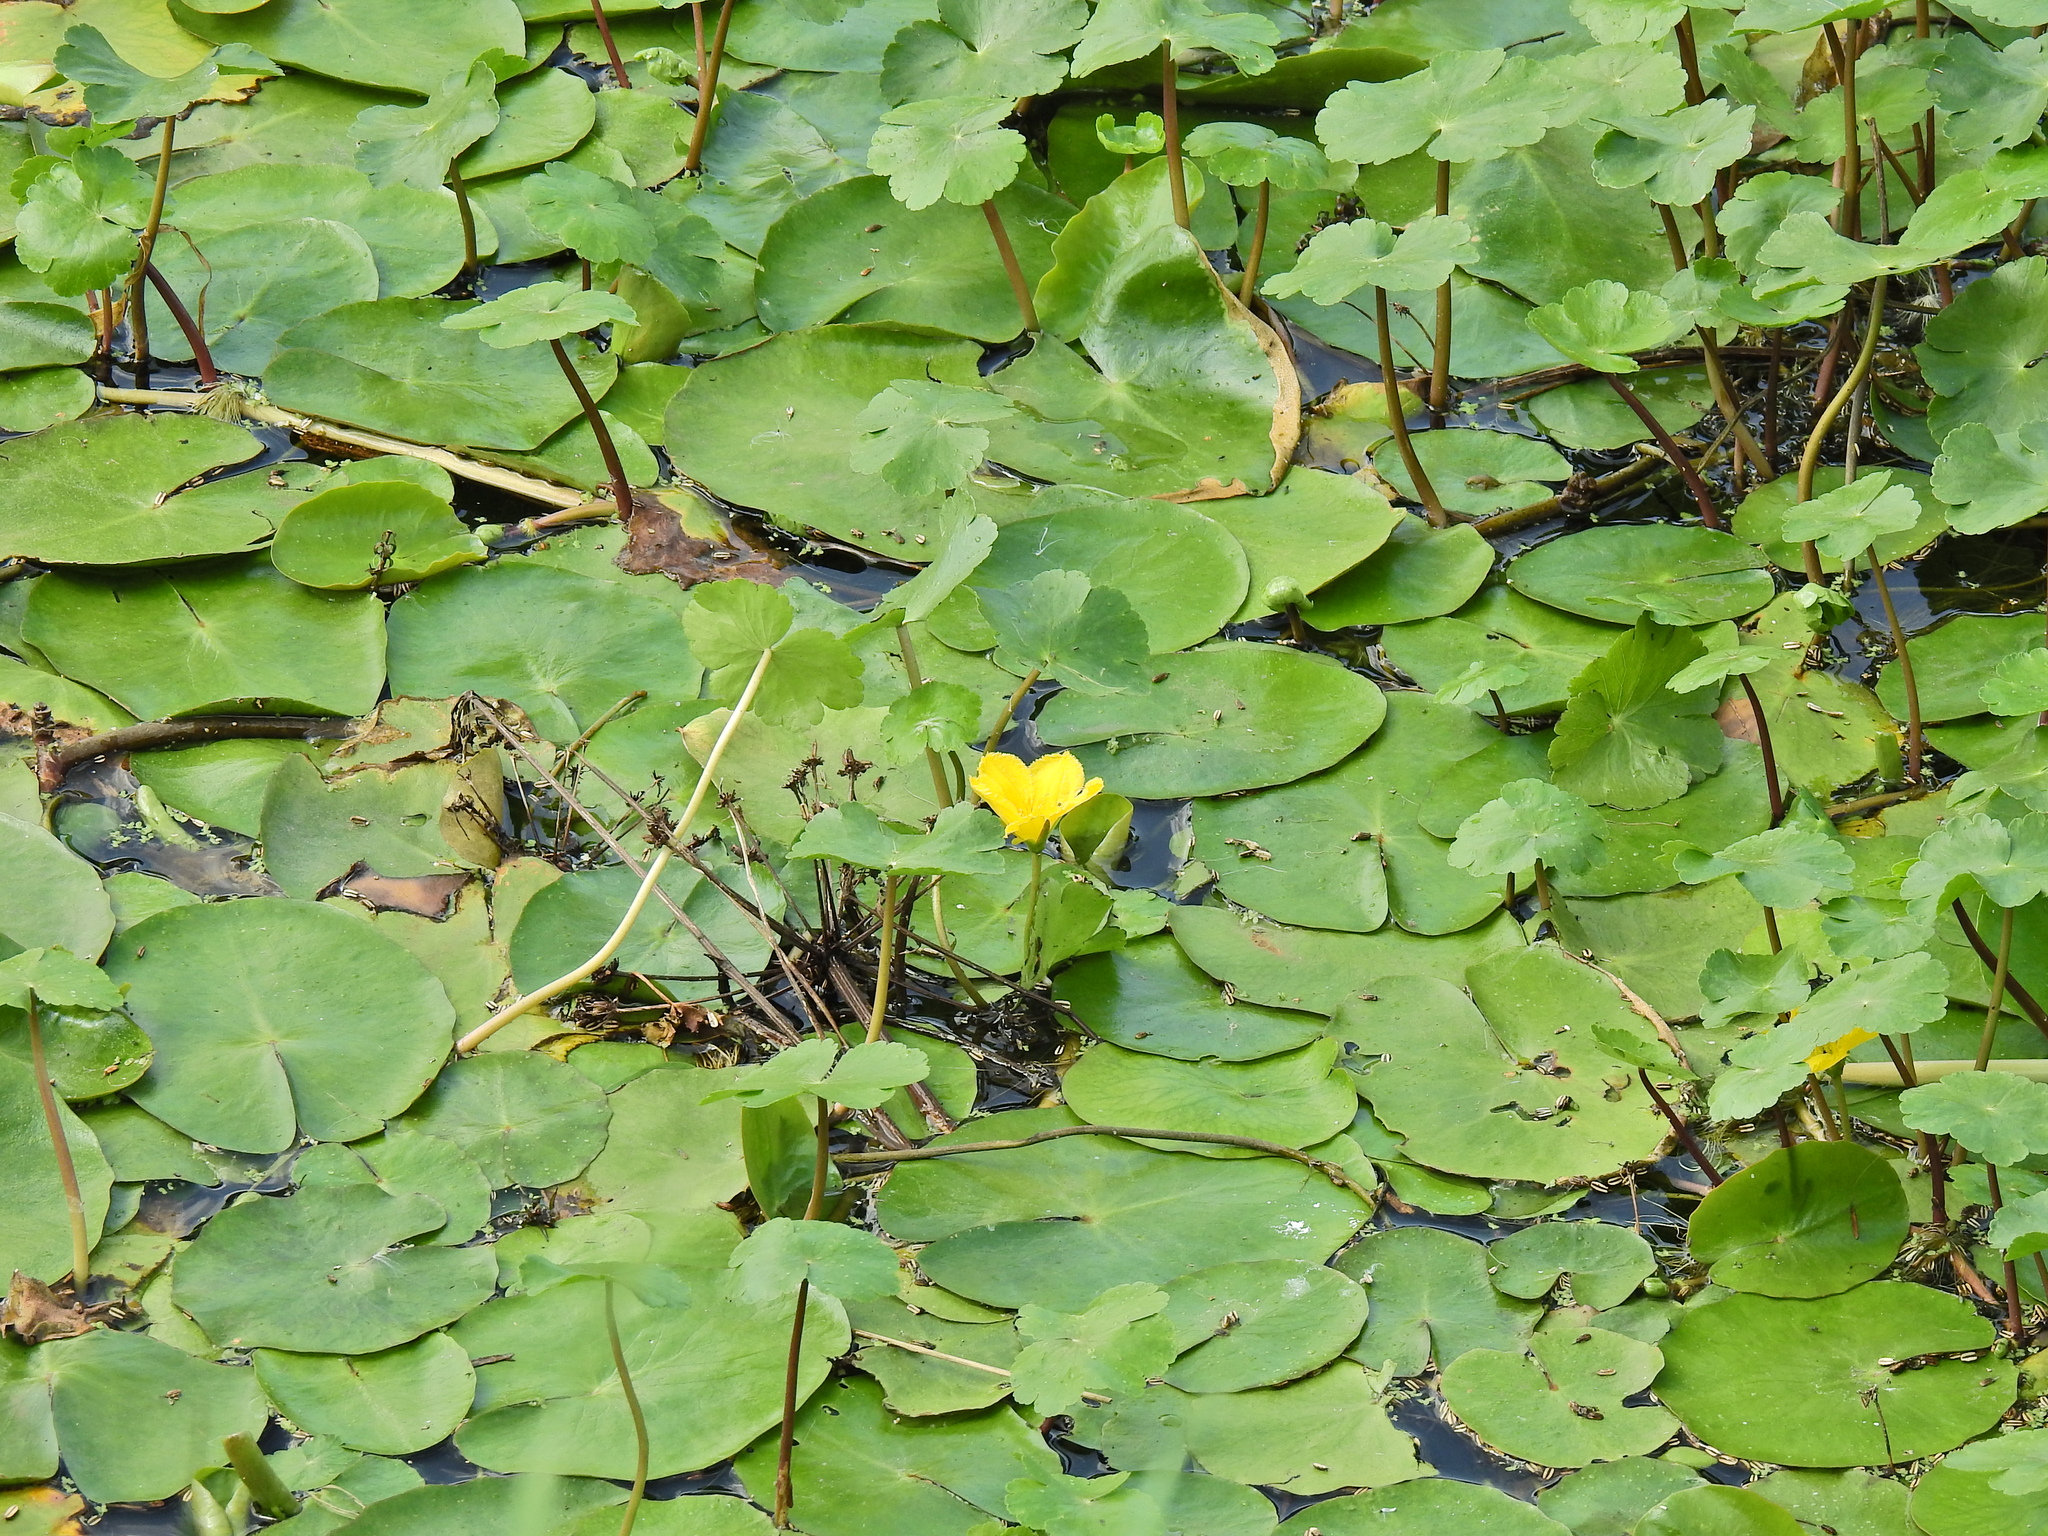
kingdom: Plantae
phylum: Tracheophyta
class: Magnoliopsida
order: Asterales
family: Menyanthaceae
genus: Nymphoides
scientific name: Nymphoides peltata
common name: Fringed water-lily
